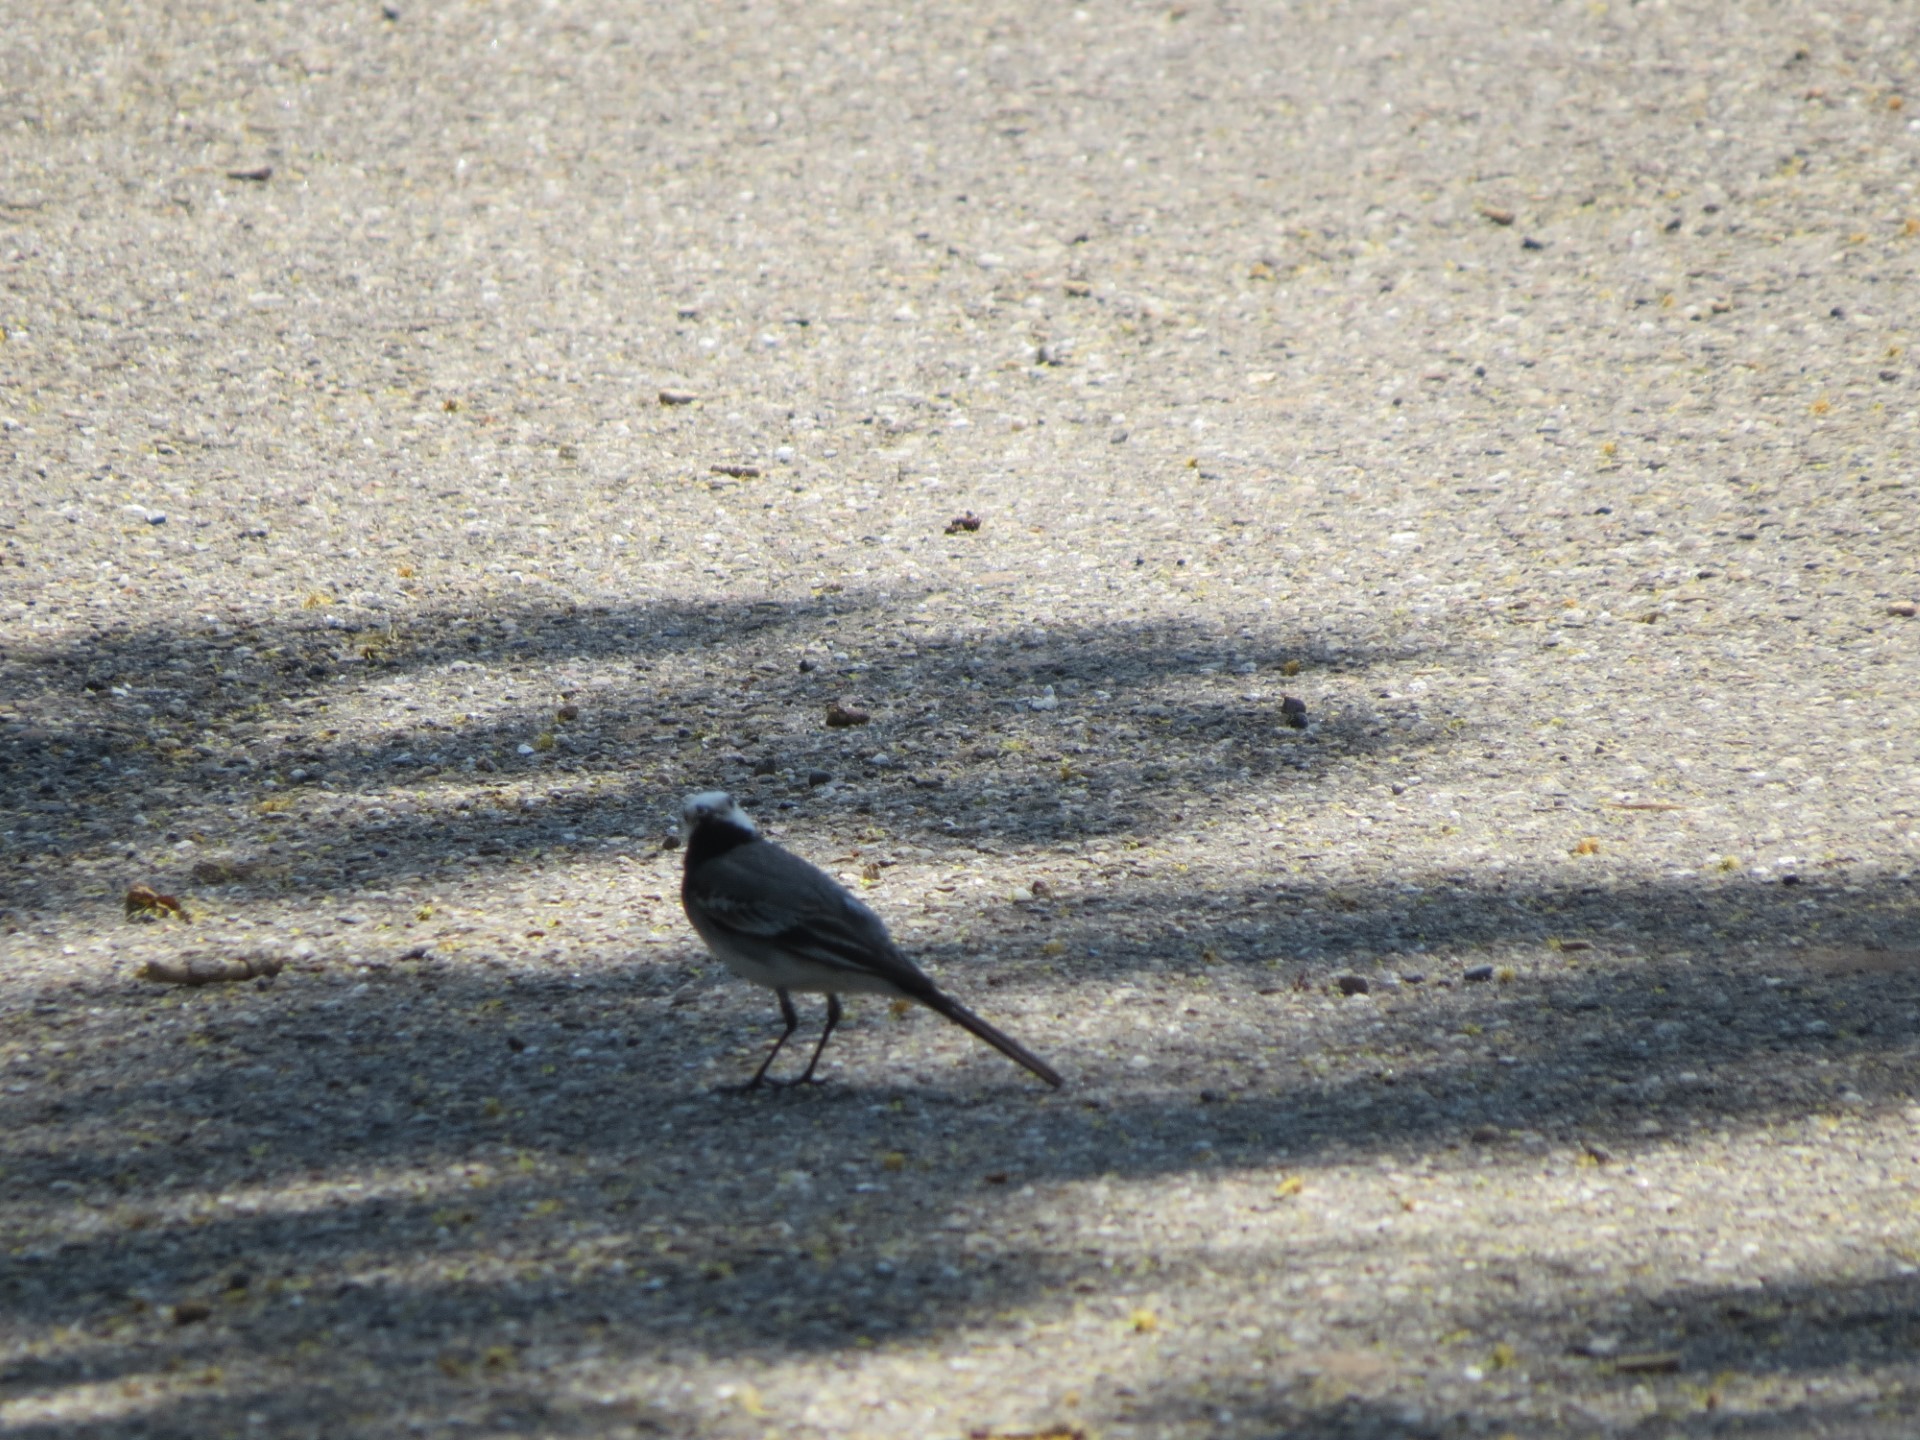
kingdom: Animalia
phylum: Chordata
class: Aves
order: Passeriformes
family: Motacillidae
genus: Motacilla
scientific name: Motacilla alba
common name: White wagtail
